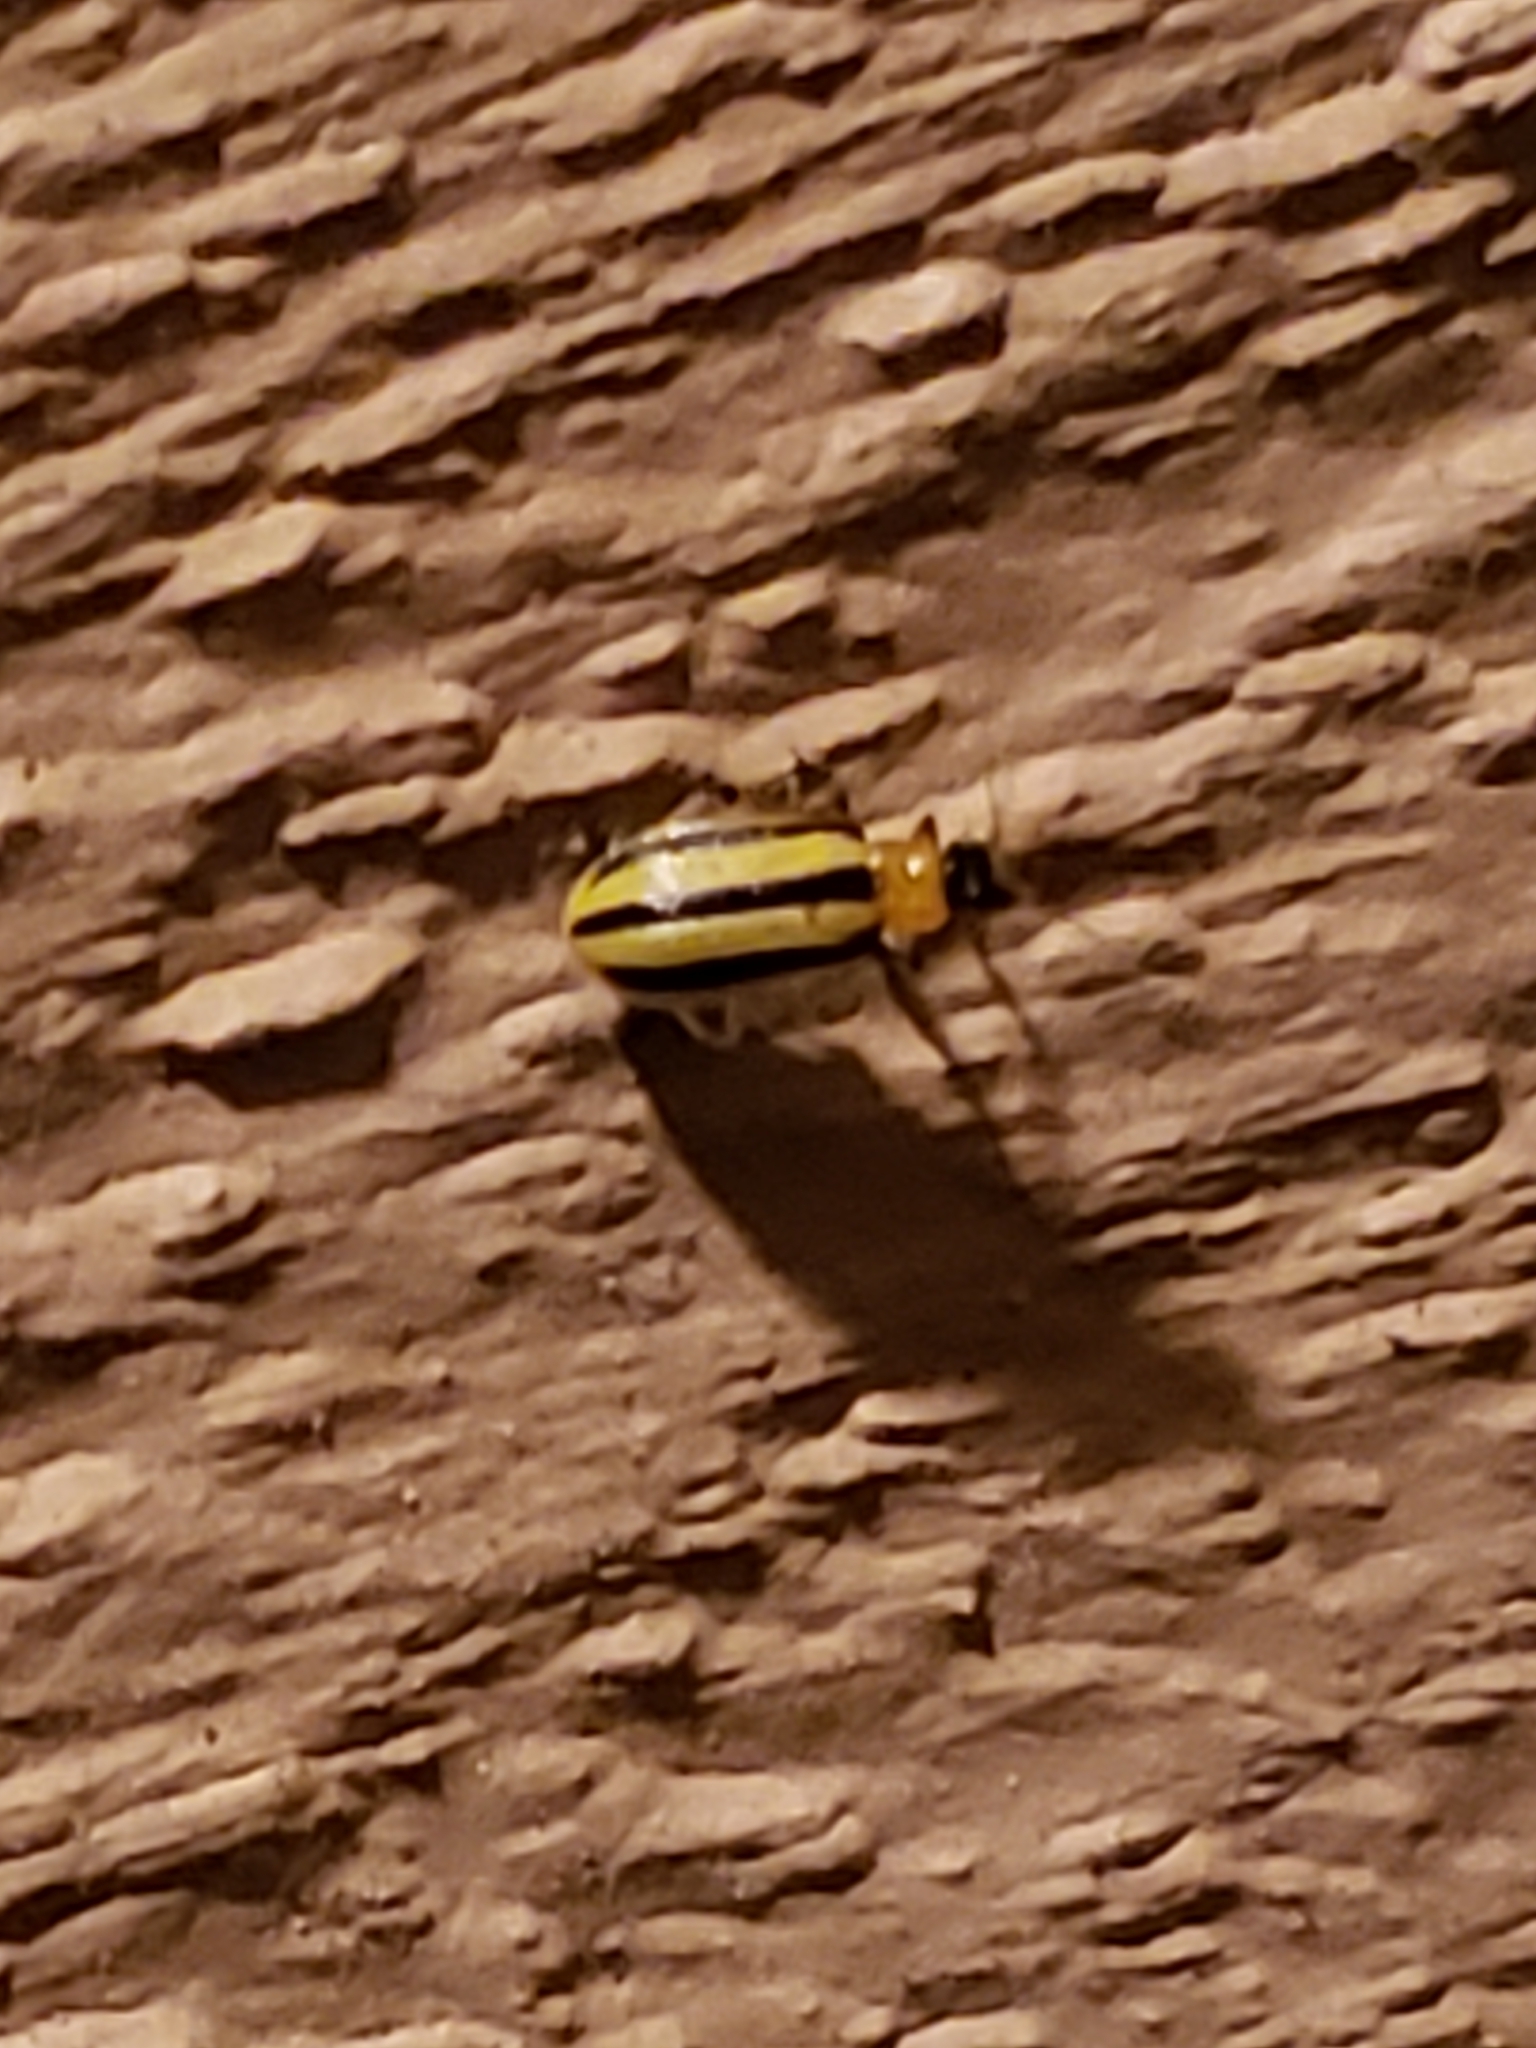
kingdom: Animalia
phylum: Arthropoda
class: Insecta
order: Coleoptera
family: Chrysomelidae
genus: Acalymma
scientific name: Acalymma vittatum
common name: Striped cucumber beetle
